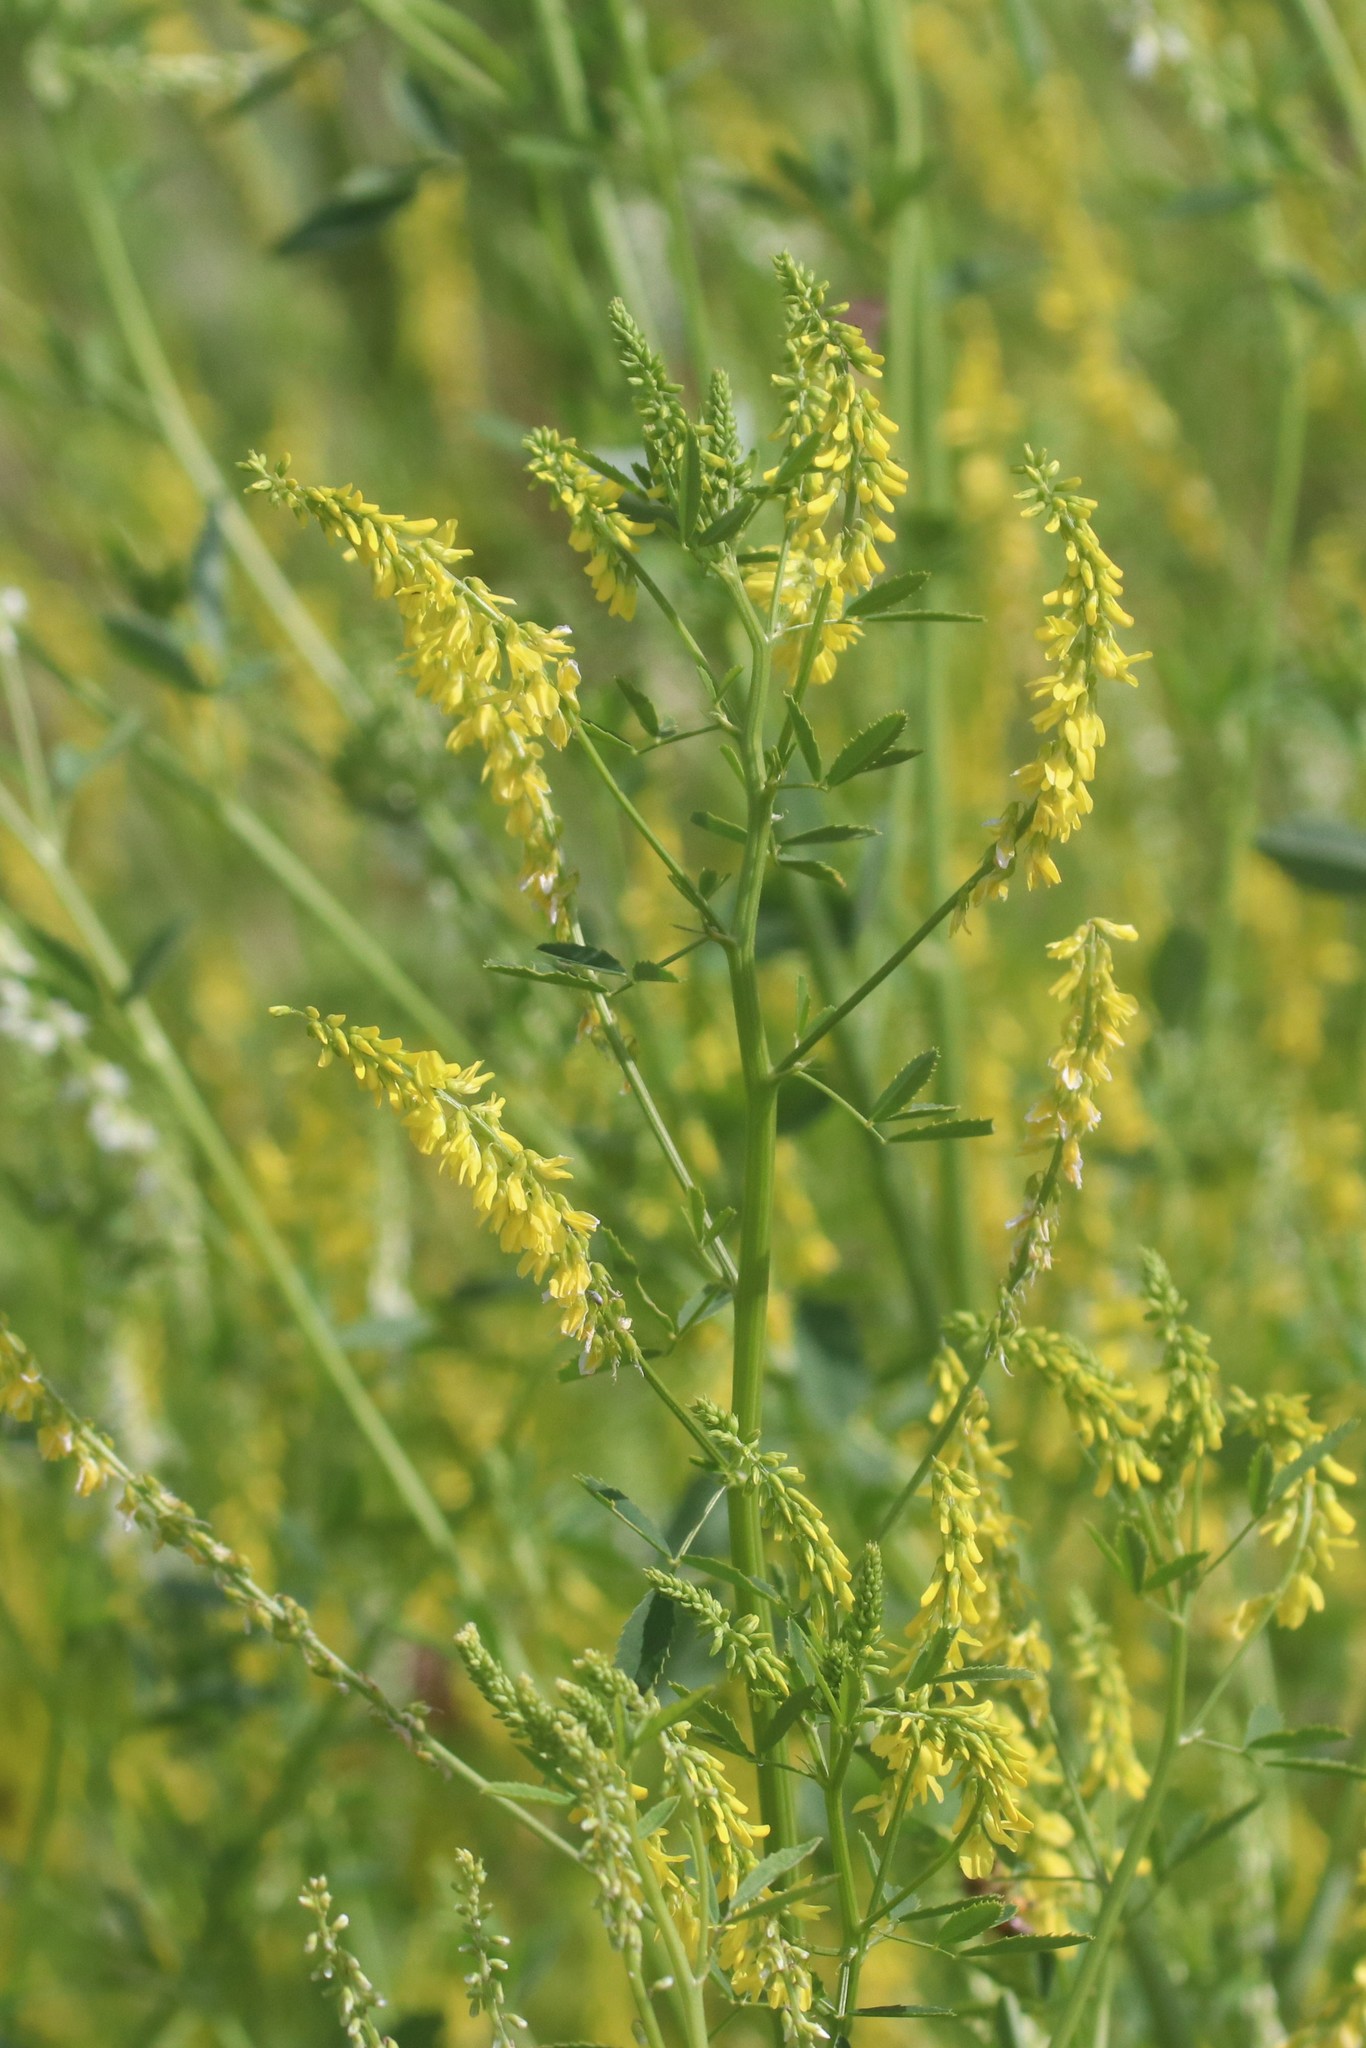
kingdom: Plantae
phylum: Tracheophyta
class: Magnoliopsida
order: Fabales
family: Fabaceae
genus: Melilotus
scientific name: Melilotus officinalis
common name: Sweetclover
